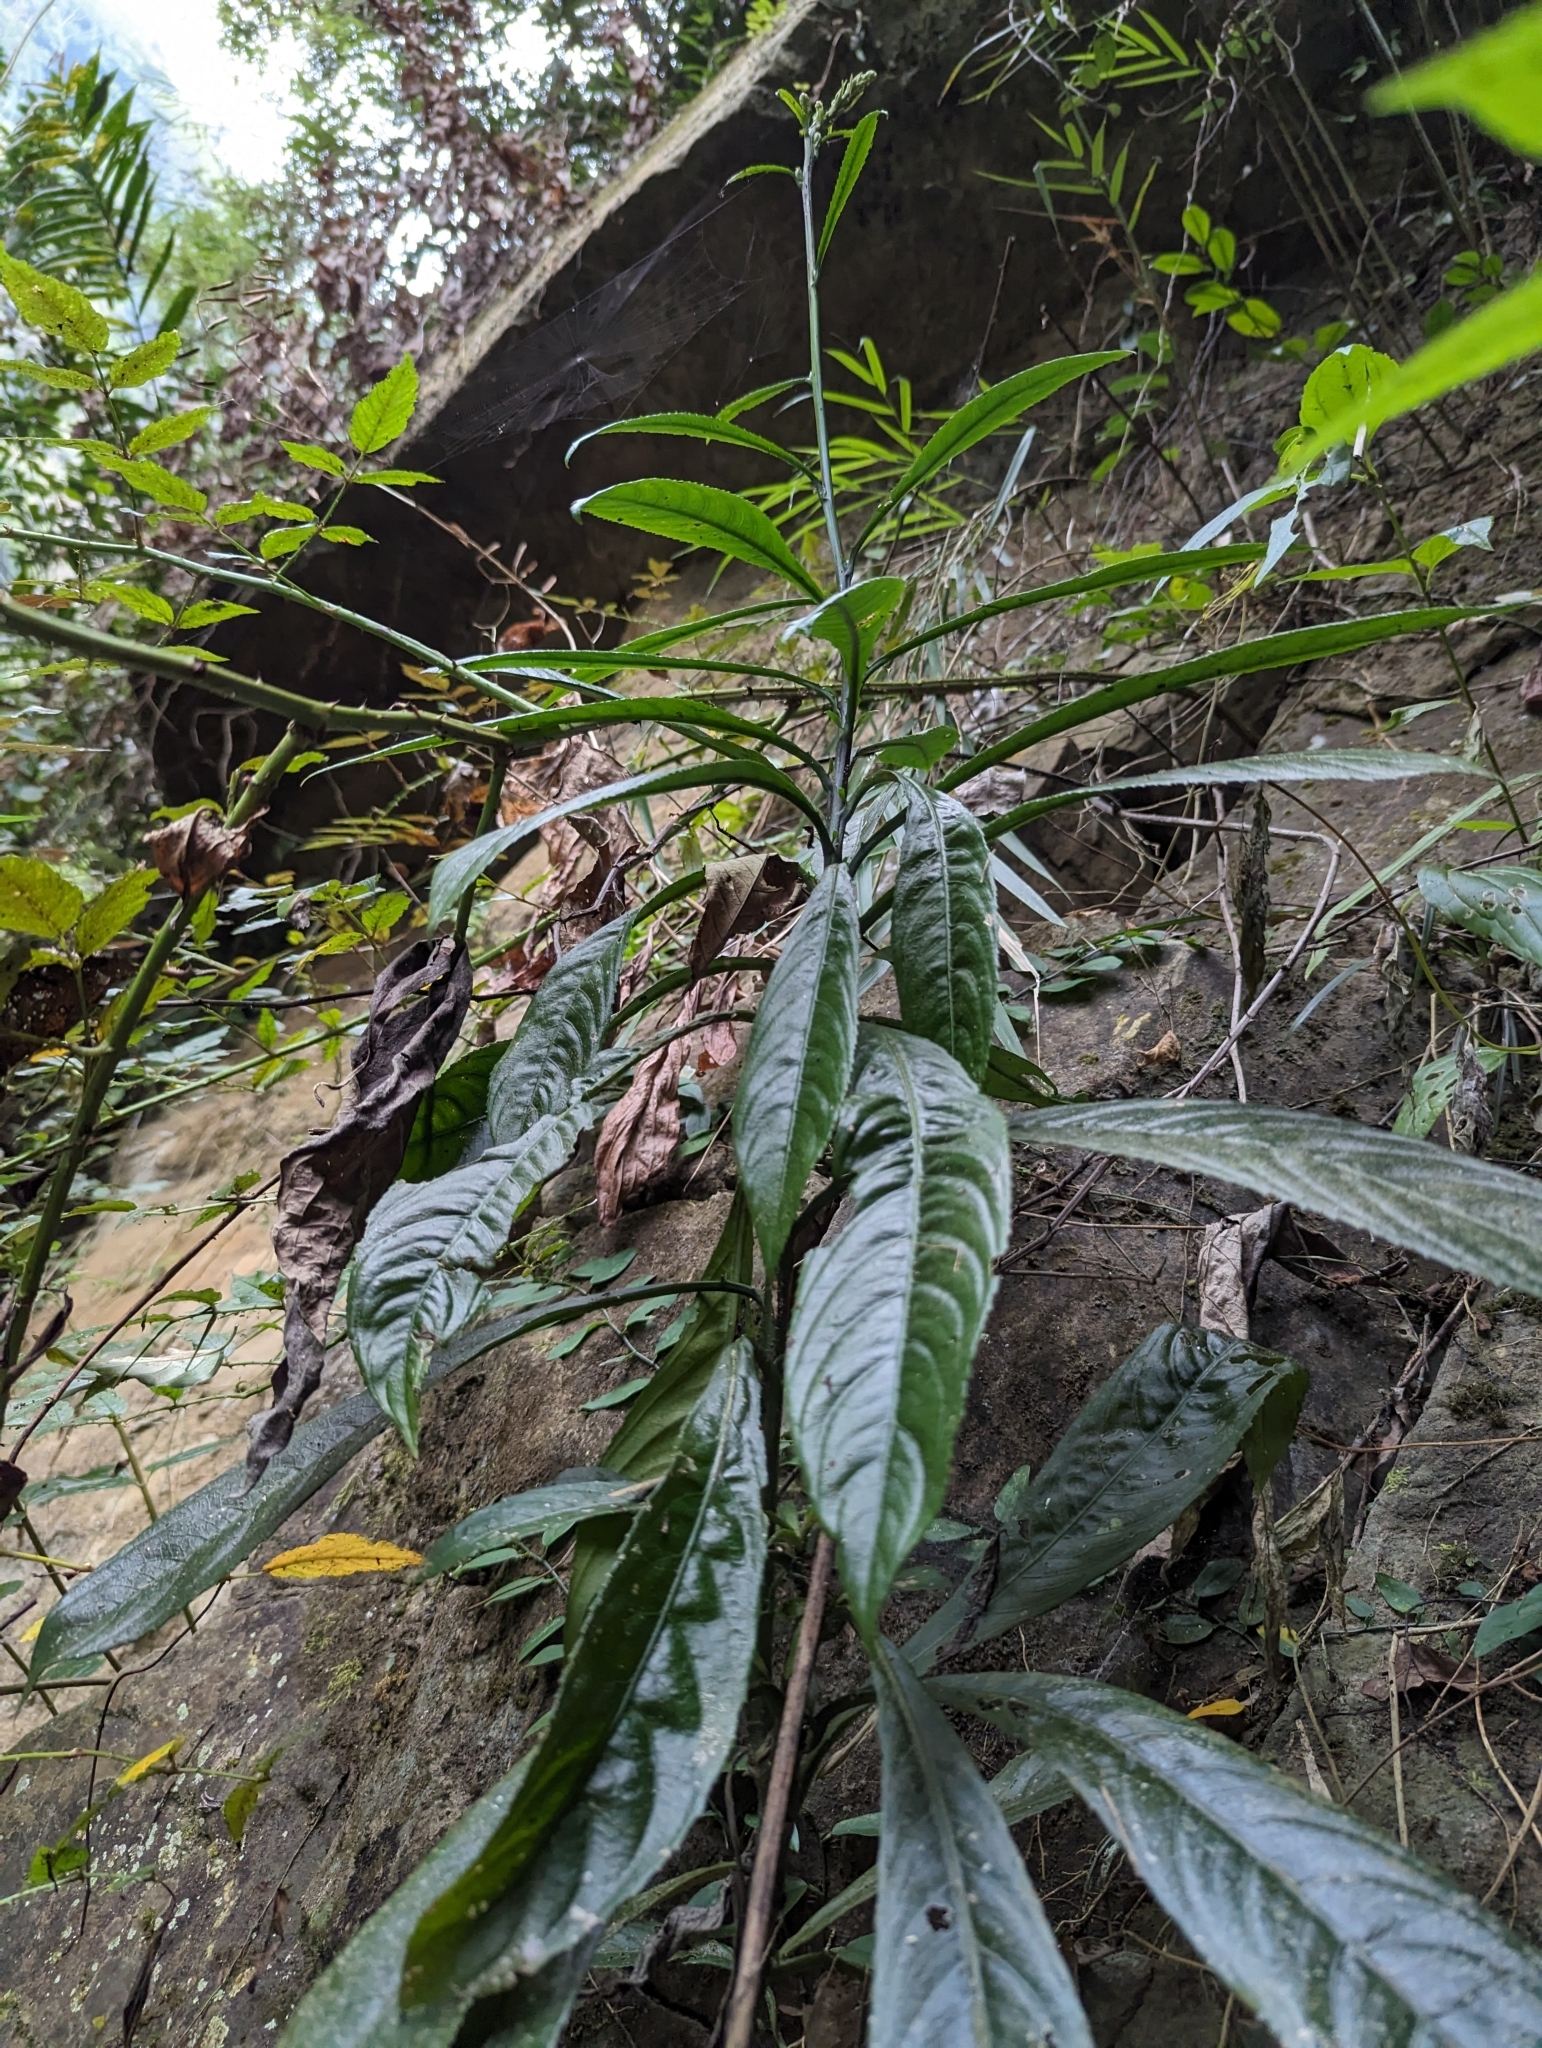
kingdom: Plantae
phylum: Tracheophyta
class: Magnoliopsida
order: Asterales
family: Asteraceae
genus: Blumea
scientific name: Blumea lanceolaria
